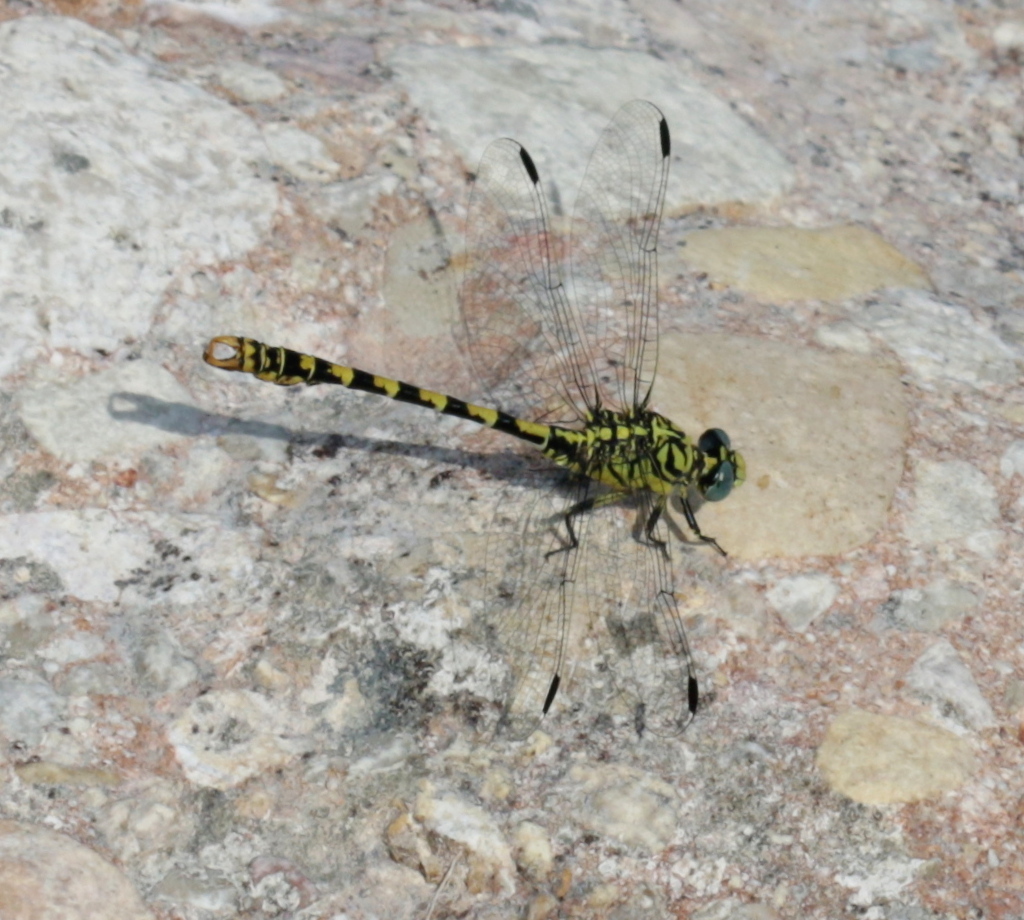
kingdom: Animalia
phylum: Arthropoda
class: Insecta
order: Odonata
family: Gomphidae
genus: Onychogomphus
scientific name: Onychogomphus forcipatus
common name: Small pincertail
